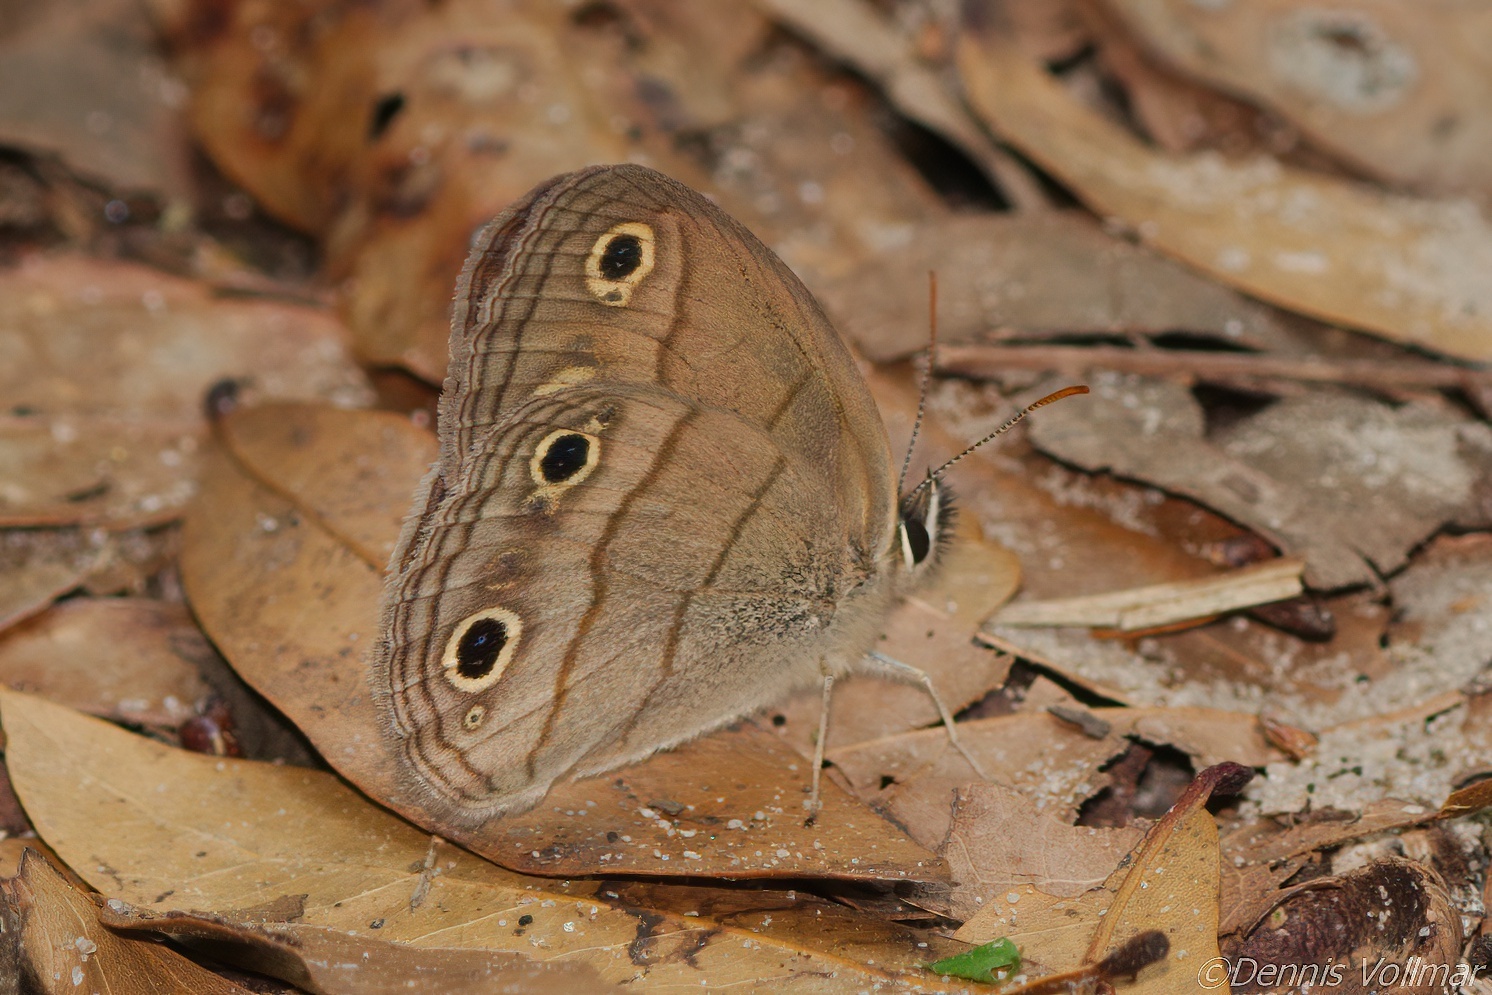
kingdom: Animalia
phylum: Arthropoda
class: Insecta
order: Lepidoptera
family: Nymphalidae
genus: Euptychia
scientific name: Euptychia cymela
